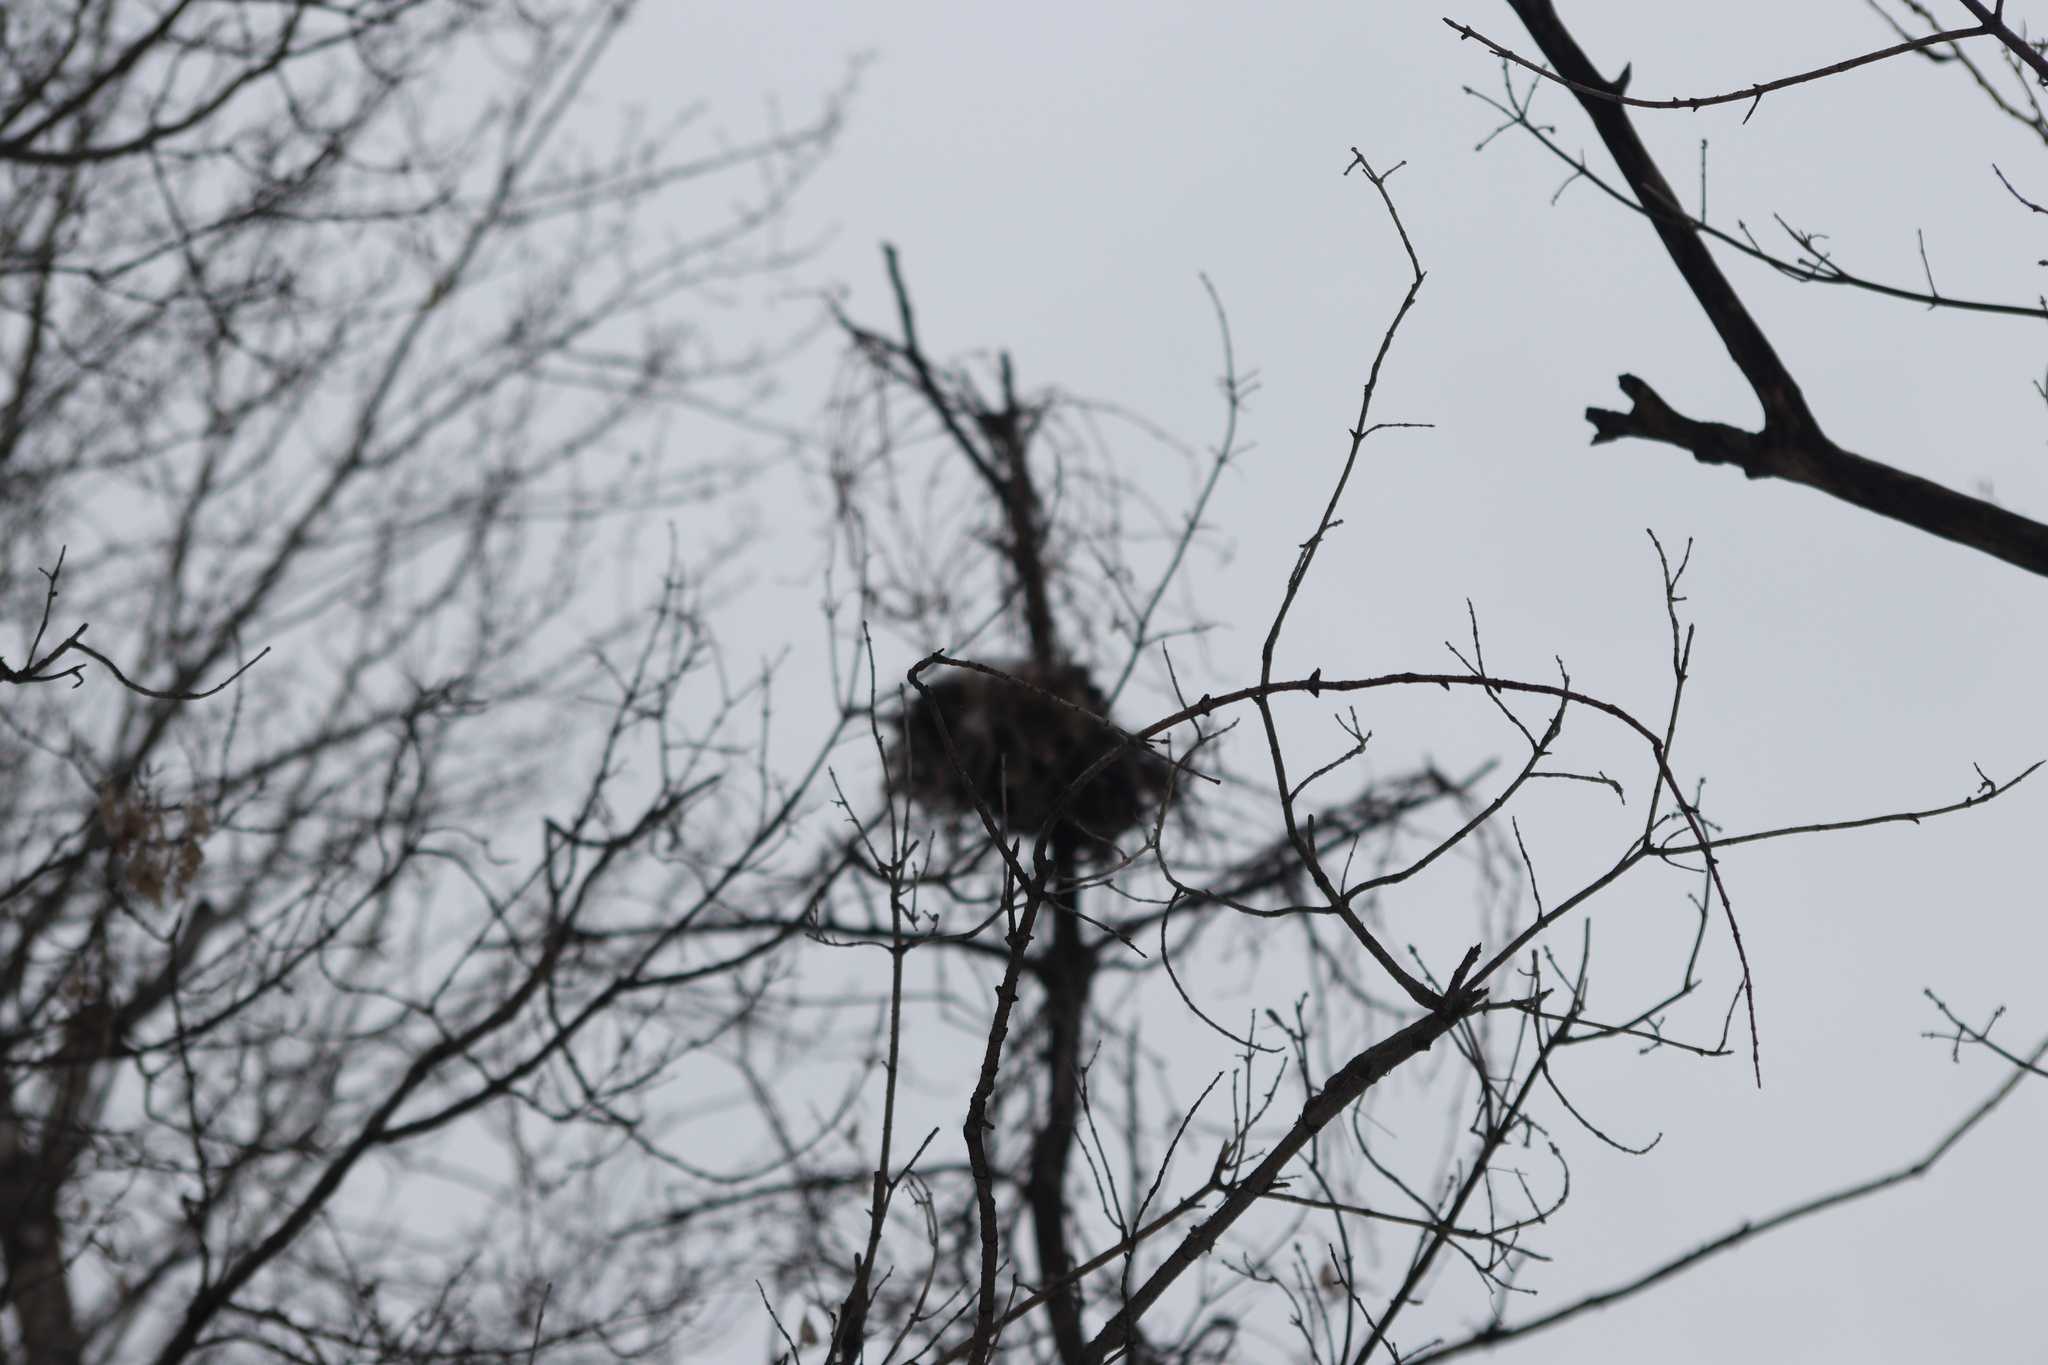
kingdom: Animalia
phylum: Chordata
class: Mammalia
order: Rodentia
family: Sciuridae
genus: Sciurus
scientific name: Sciurus carolinensis
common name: Eastern gray squirrel
